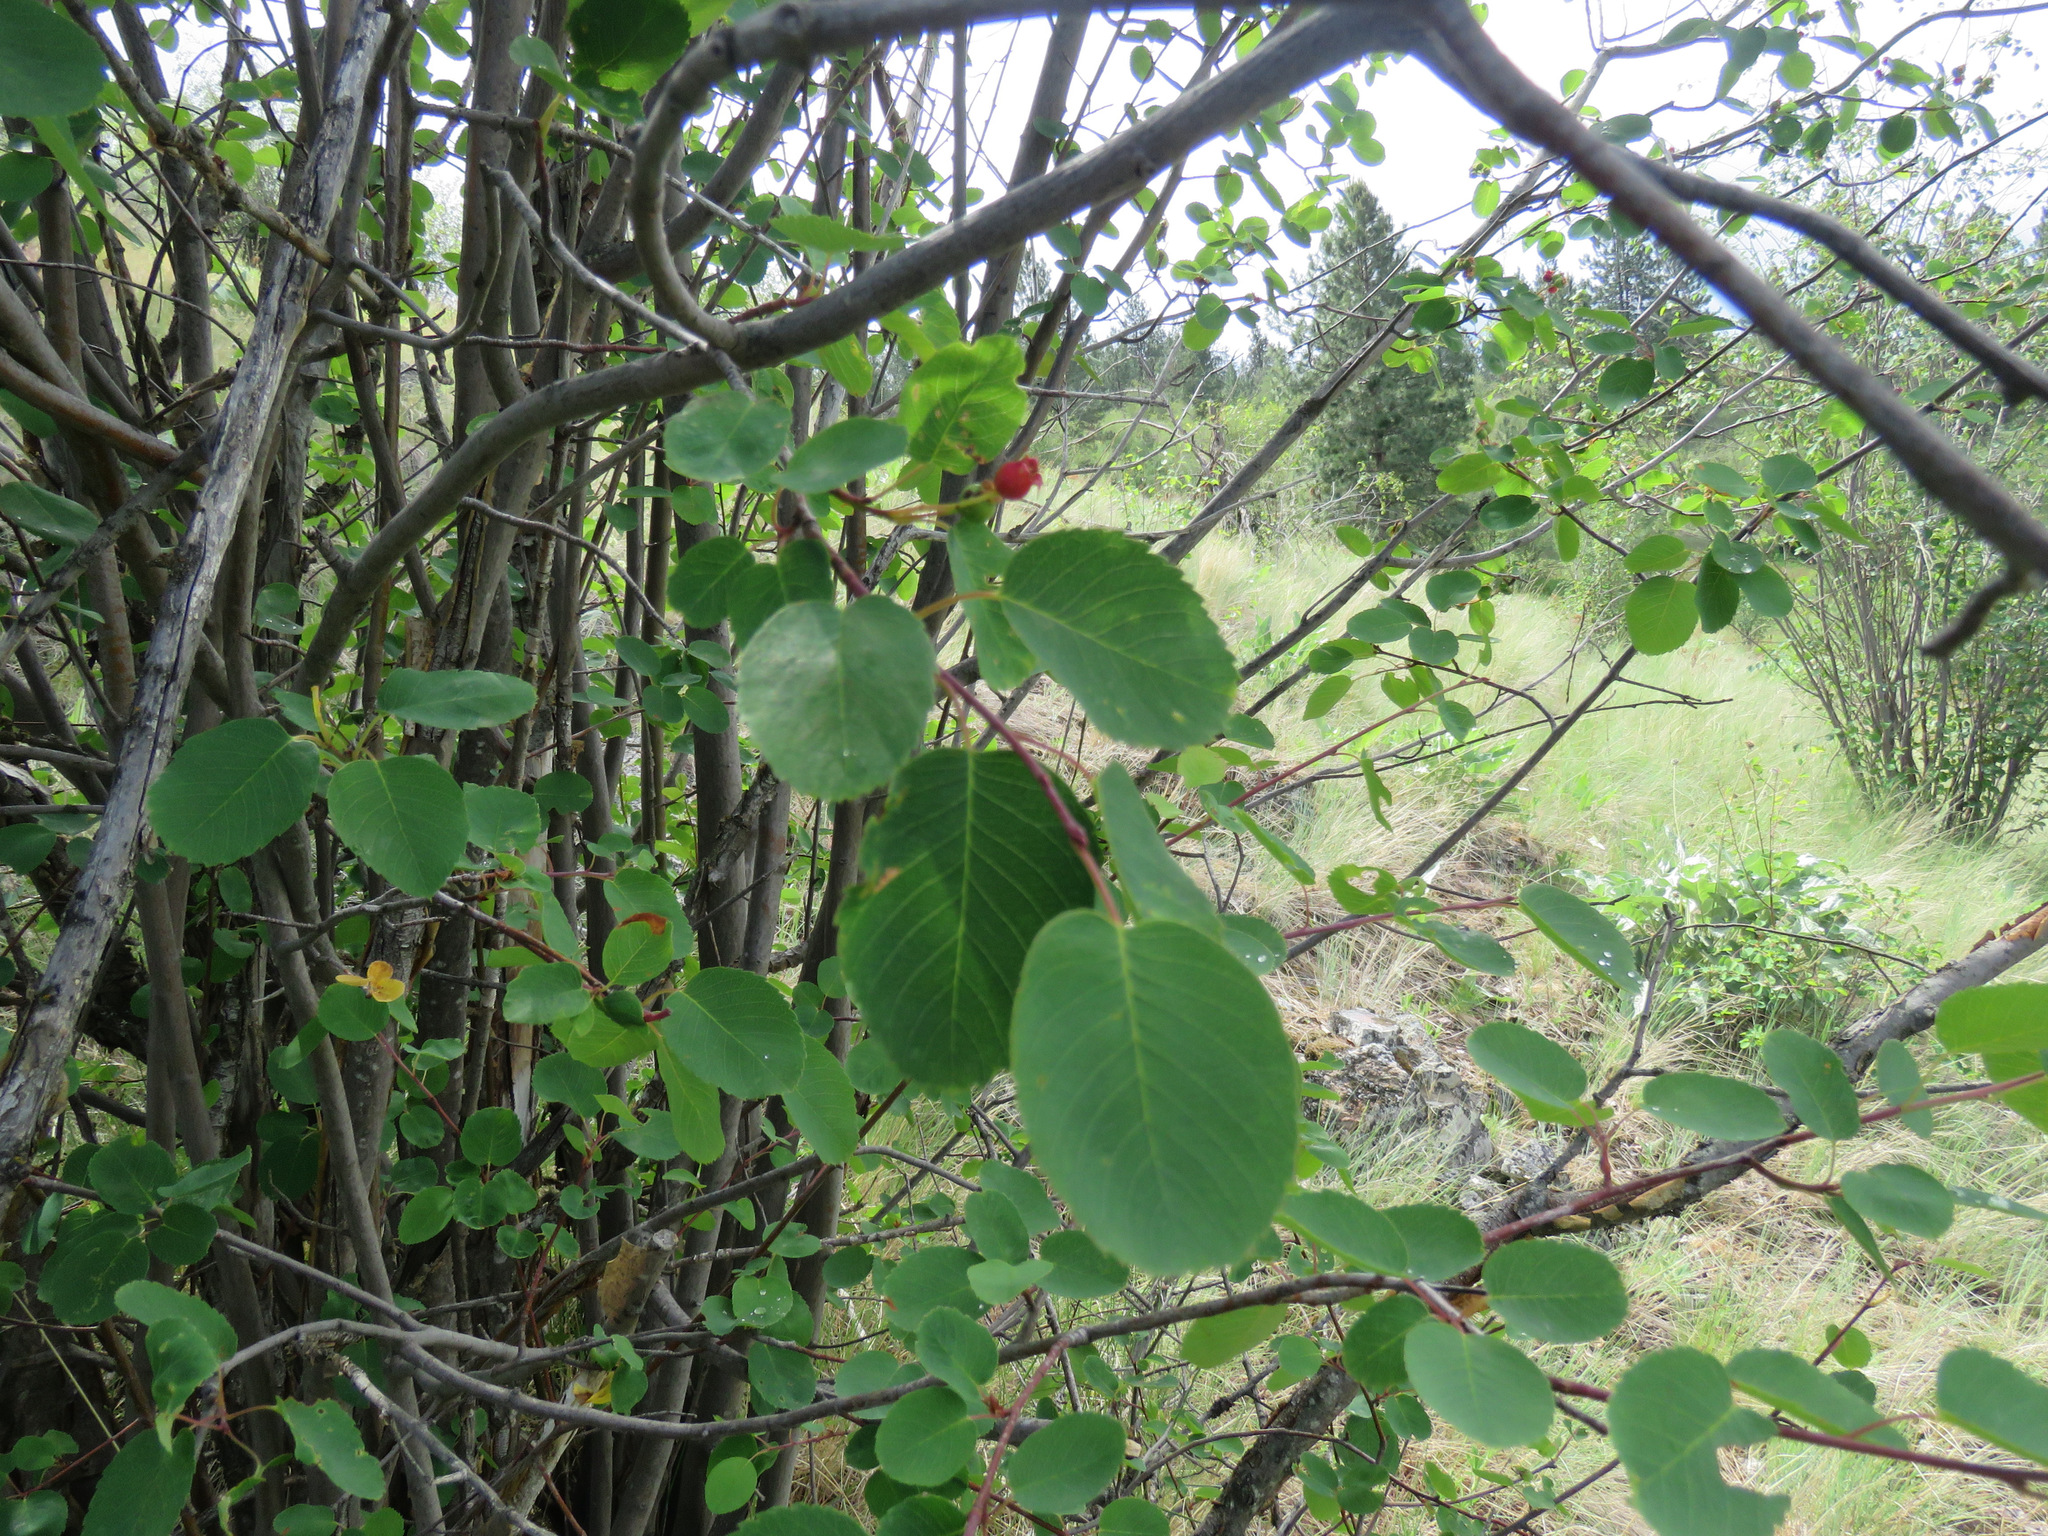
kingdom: Plantae
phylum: Tracheophyta
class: Magnoliopsida
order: Rosales
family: Rosaceae
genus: Amelanchier
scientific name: Amelanchier alnifolia
